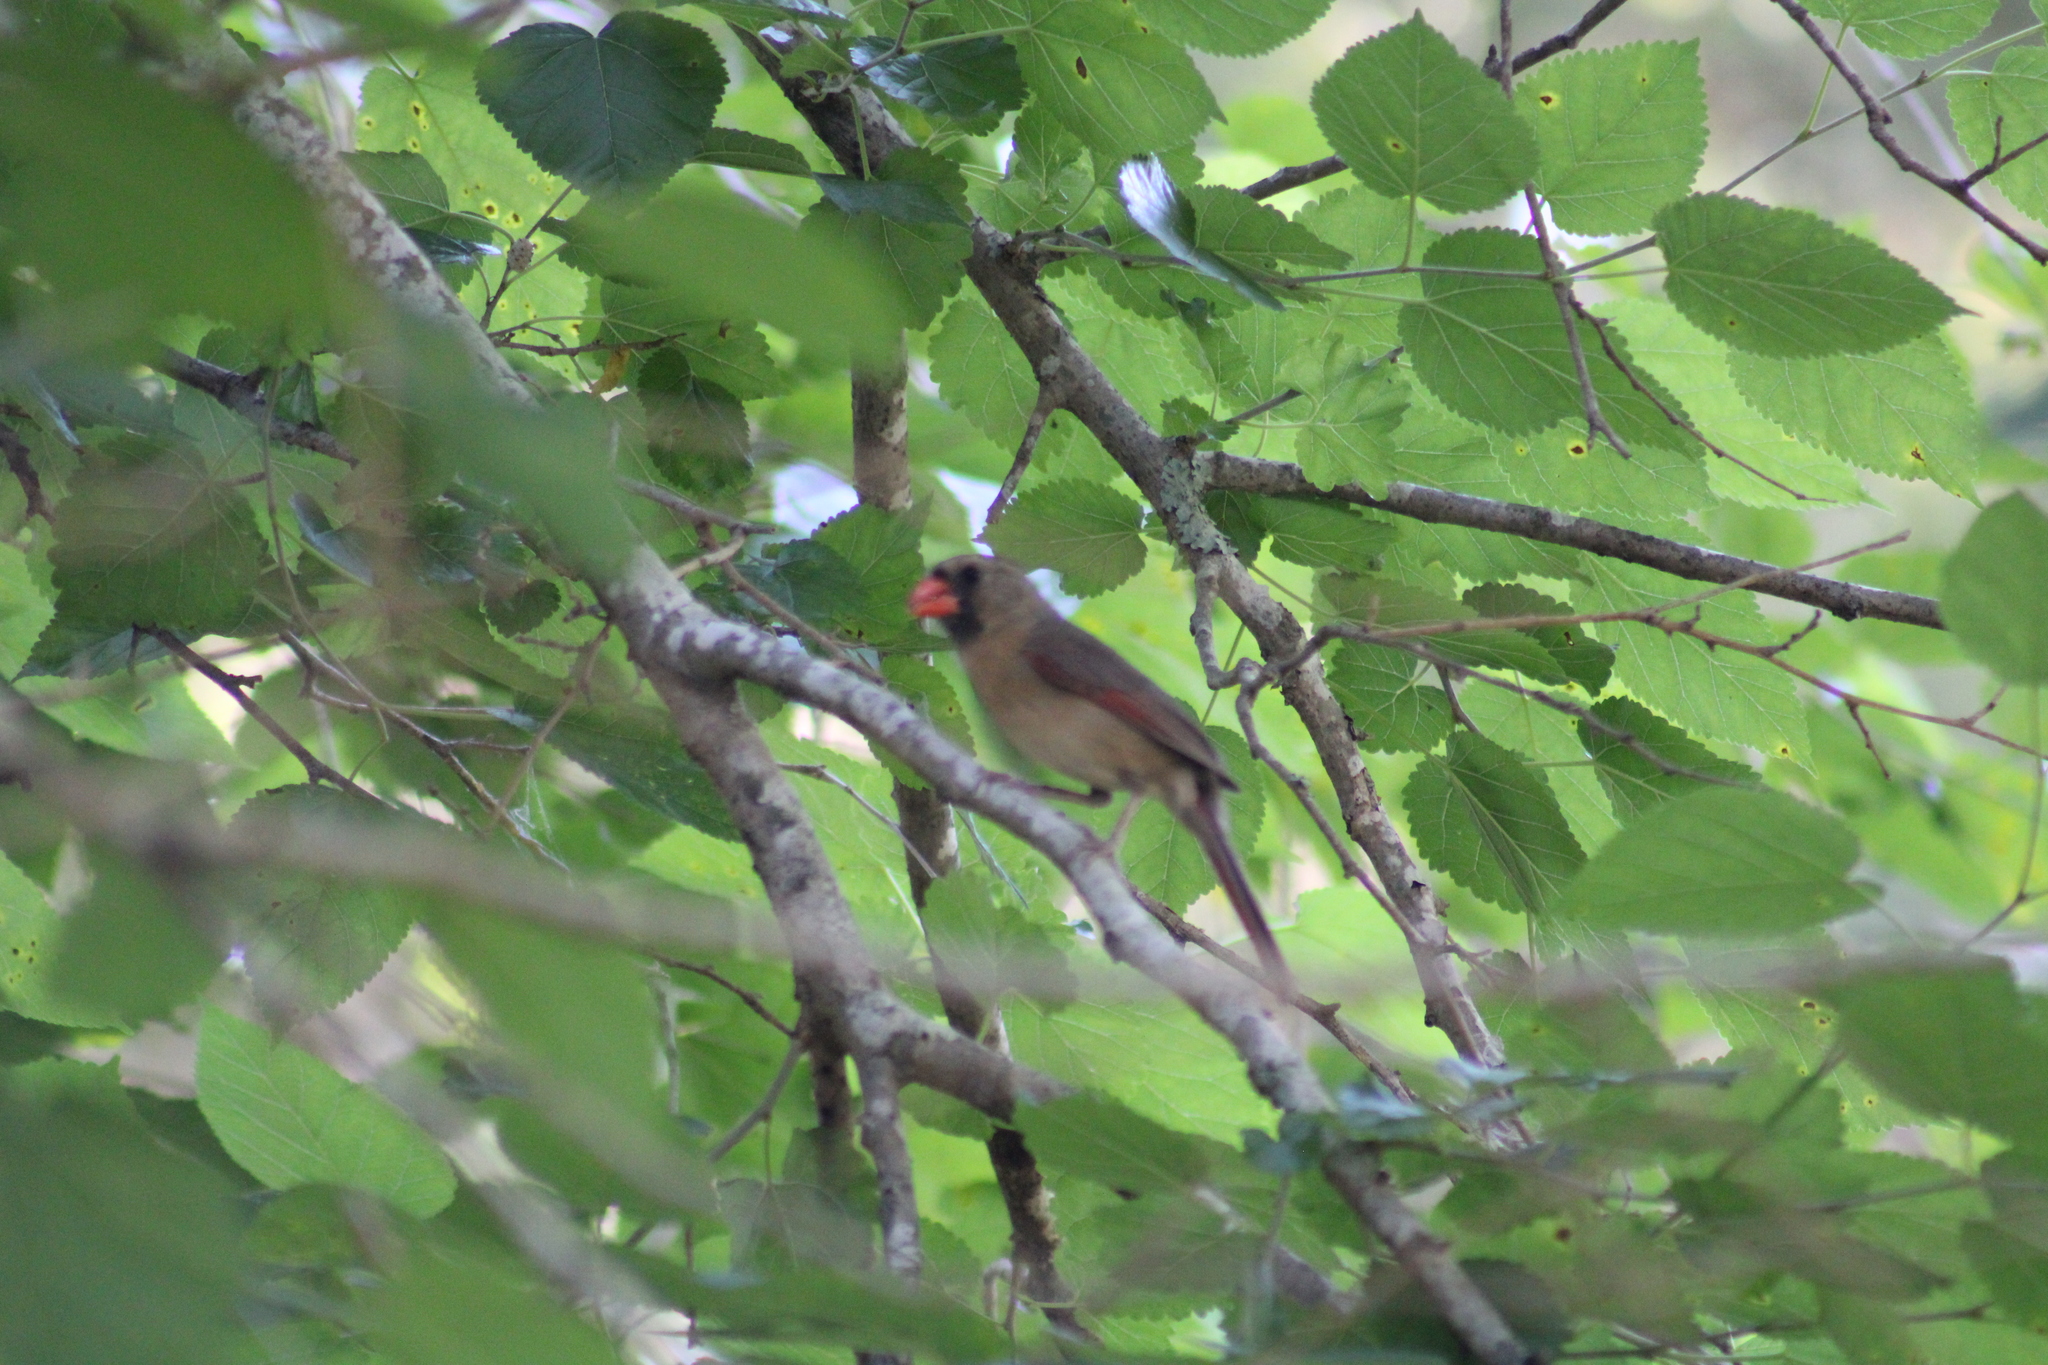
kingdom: Animalia
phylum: Chordata
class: Aves
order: Passeriformes
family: Cardinalidae
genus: Cardinalis
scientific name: Cardinalis cardinalis
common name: Northern cardinal
